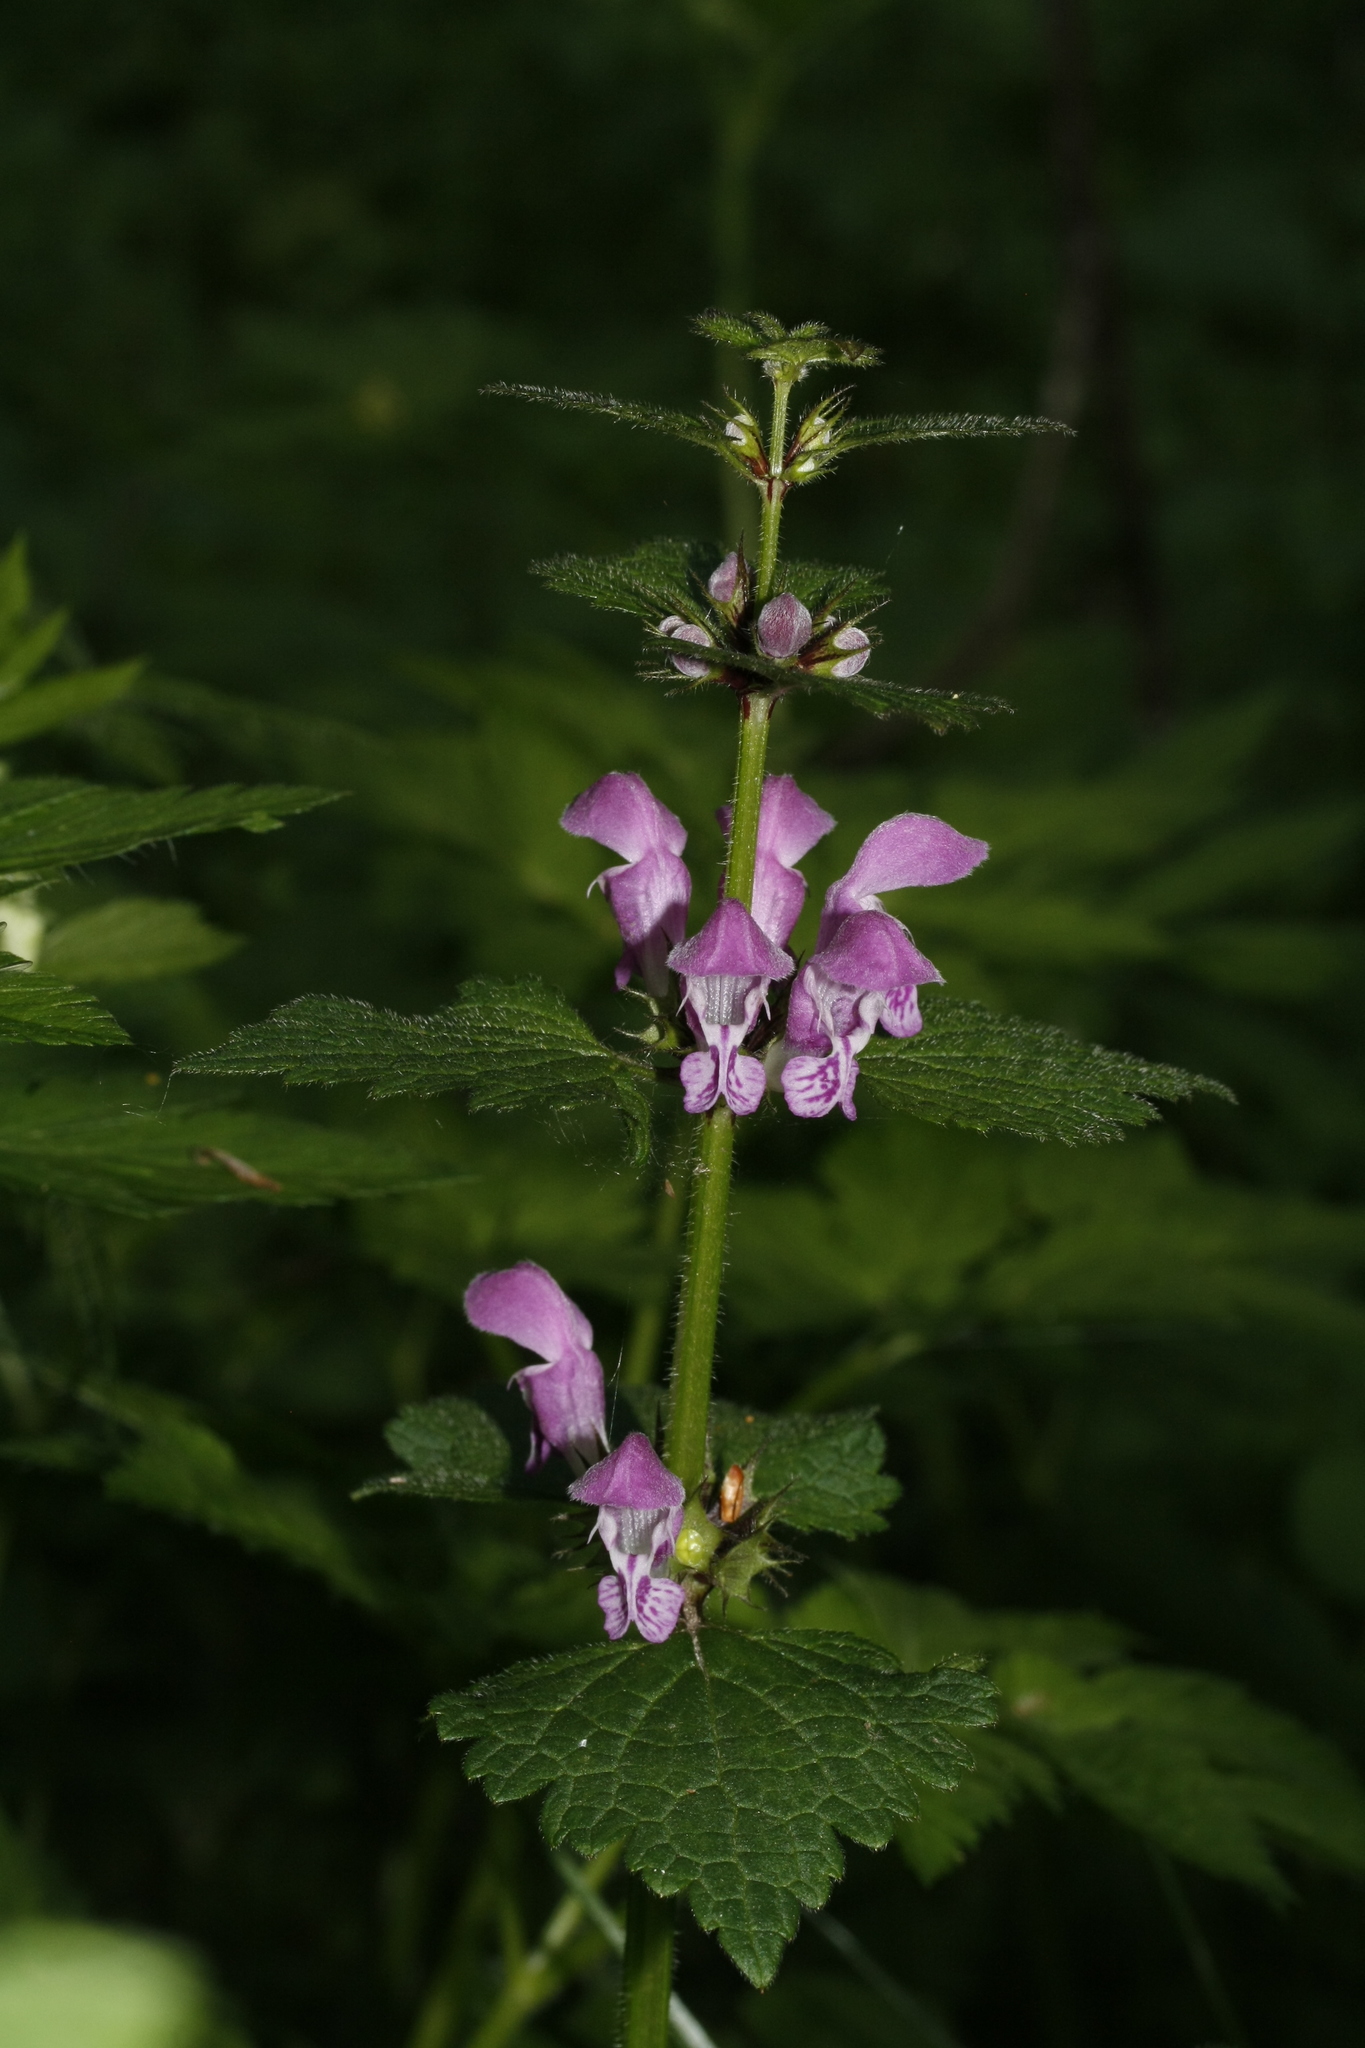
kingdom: Plantae
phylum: Tracheophyta
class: Magnoliopsida
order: Lamiales
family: Lamiaceae
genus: Lamium
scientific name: Lamium maculatum
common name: Spotted dead-nettle
